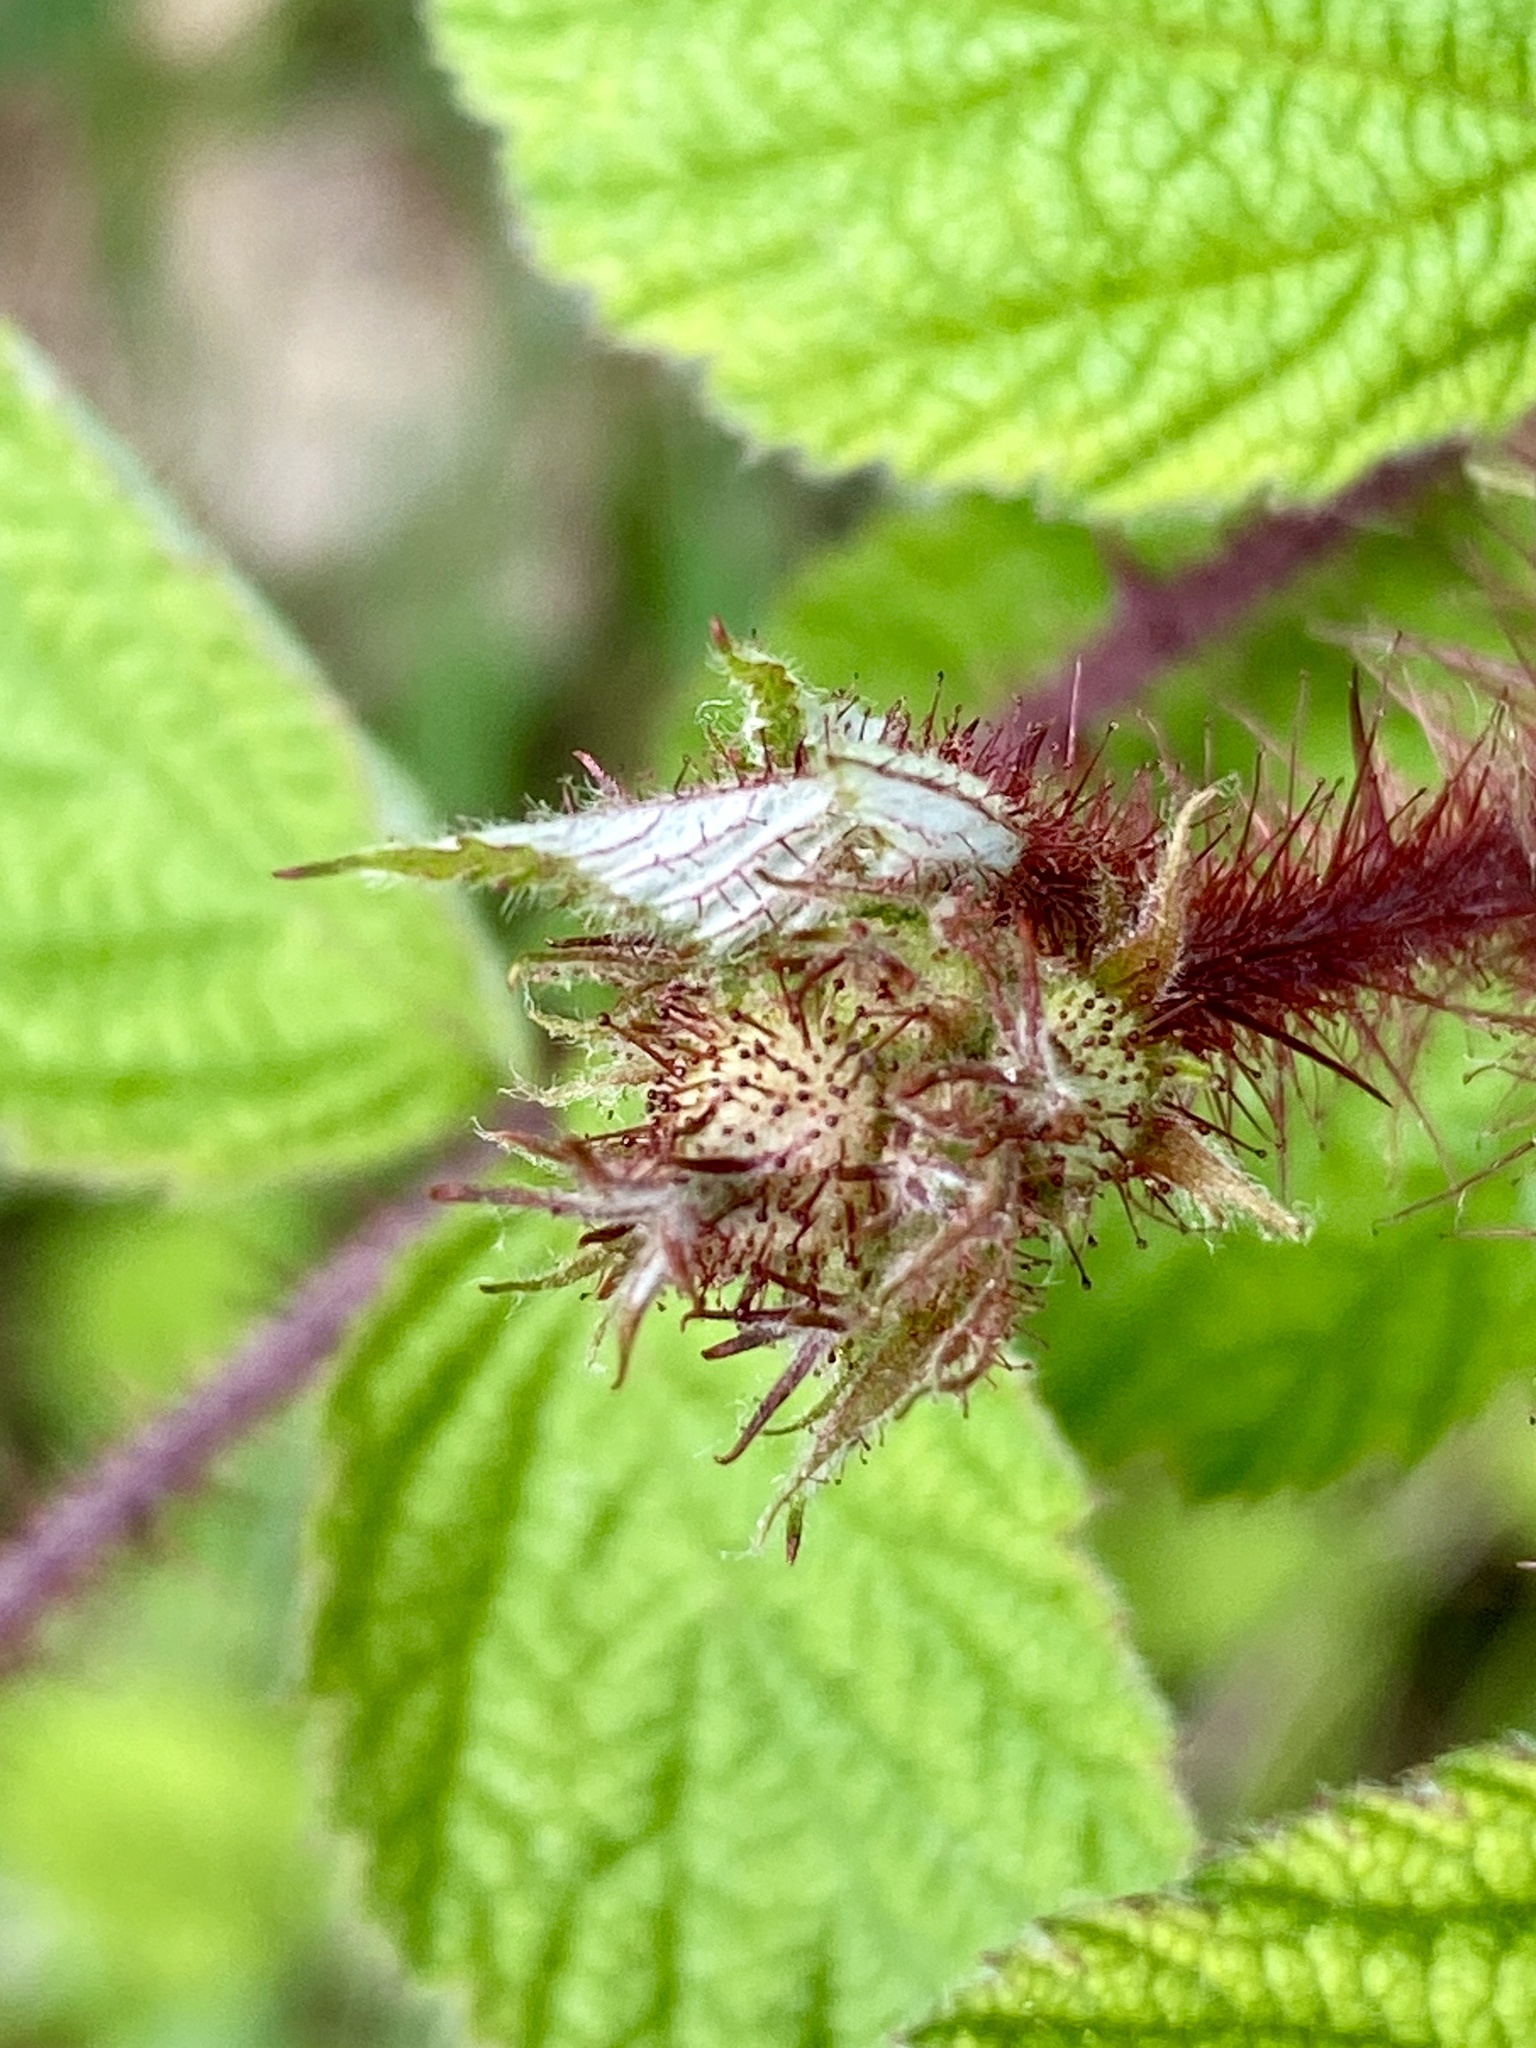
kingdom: Plantae
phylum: Tracheophyta
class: Magnoliopsida
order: Rosales
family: Rosaceae
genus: Rubus
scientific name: Rubus phoenicolasius
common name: Japanese wineberry
